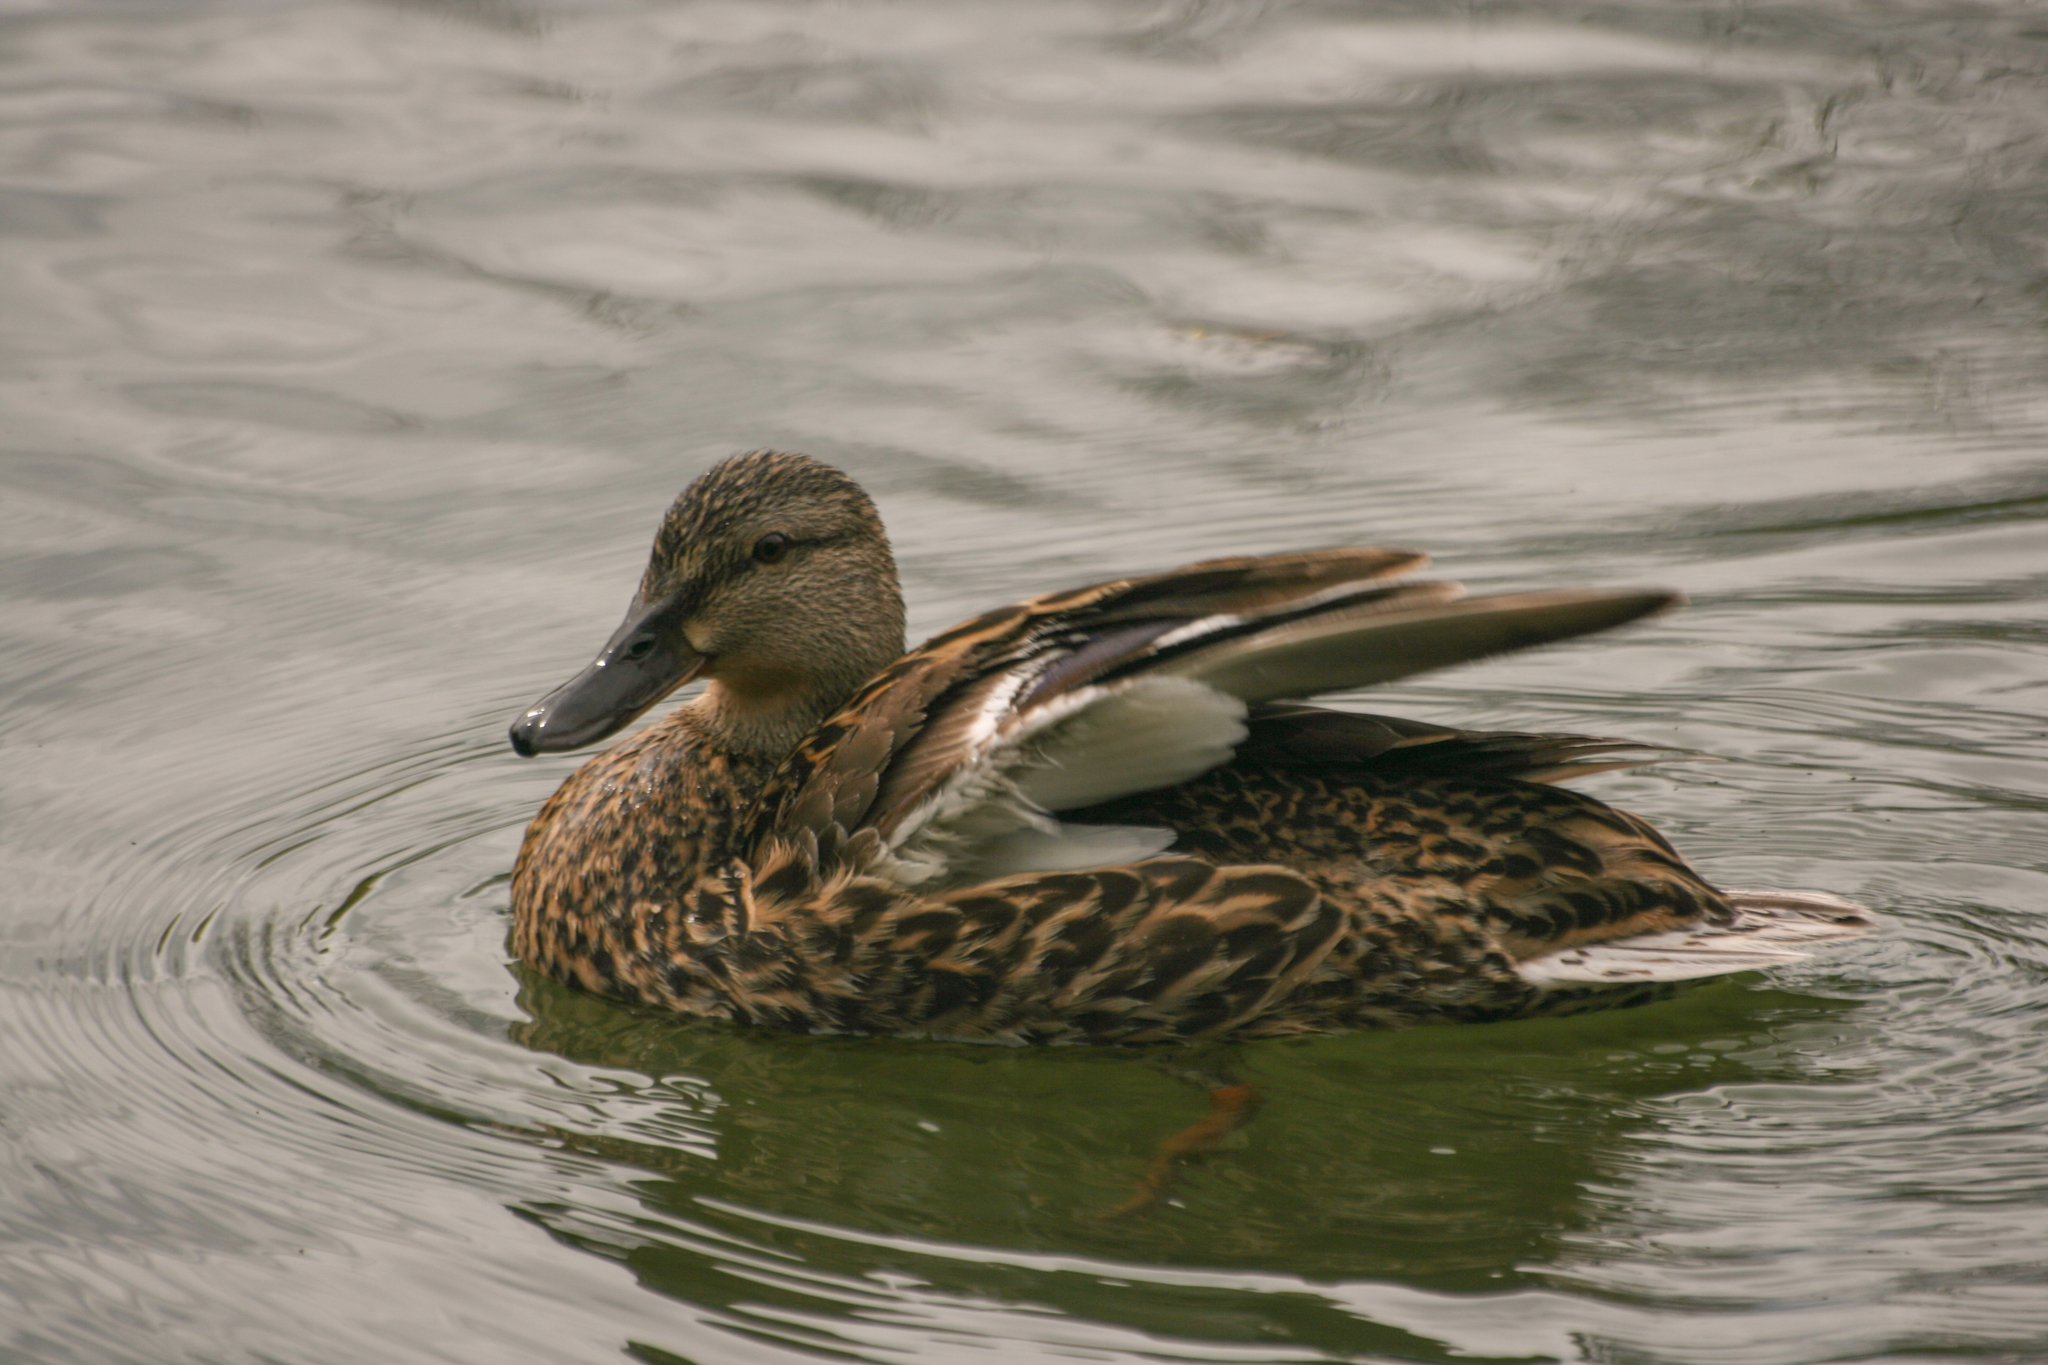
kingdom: Animalia
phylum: Chordata
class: Aves
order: Anseriformes
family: Anatidae
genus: Anas
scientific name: Anas platyrhynchos
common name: Mallard
